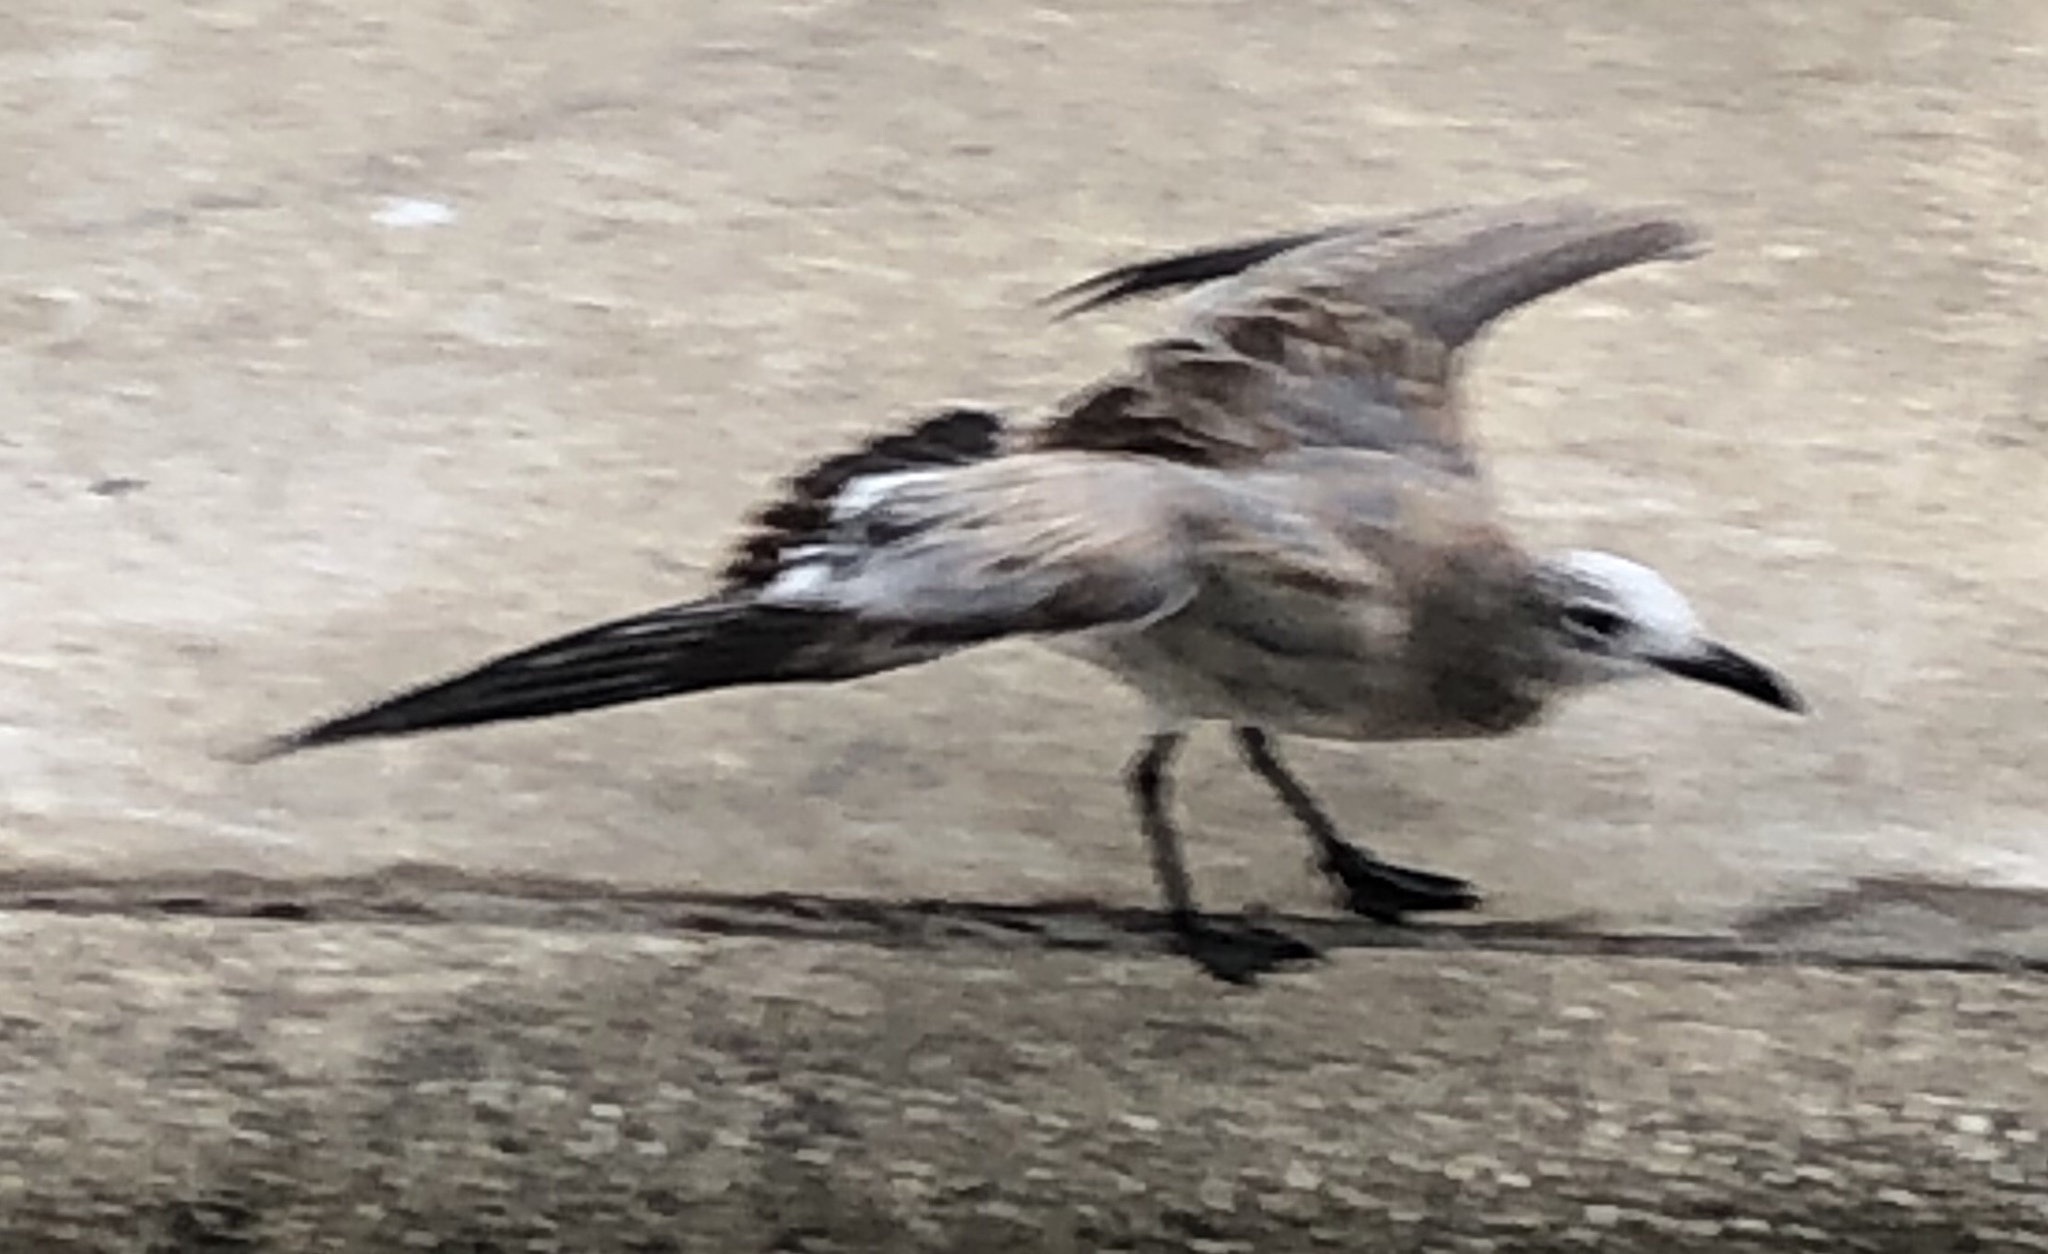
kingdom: Animalia
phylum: Chordata
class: Aves
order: Charadriiformes
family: Laridae
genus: Leucophaeus
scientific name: Leucophaeus atricilla
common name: Laughing gull
